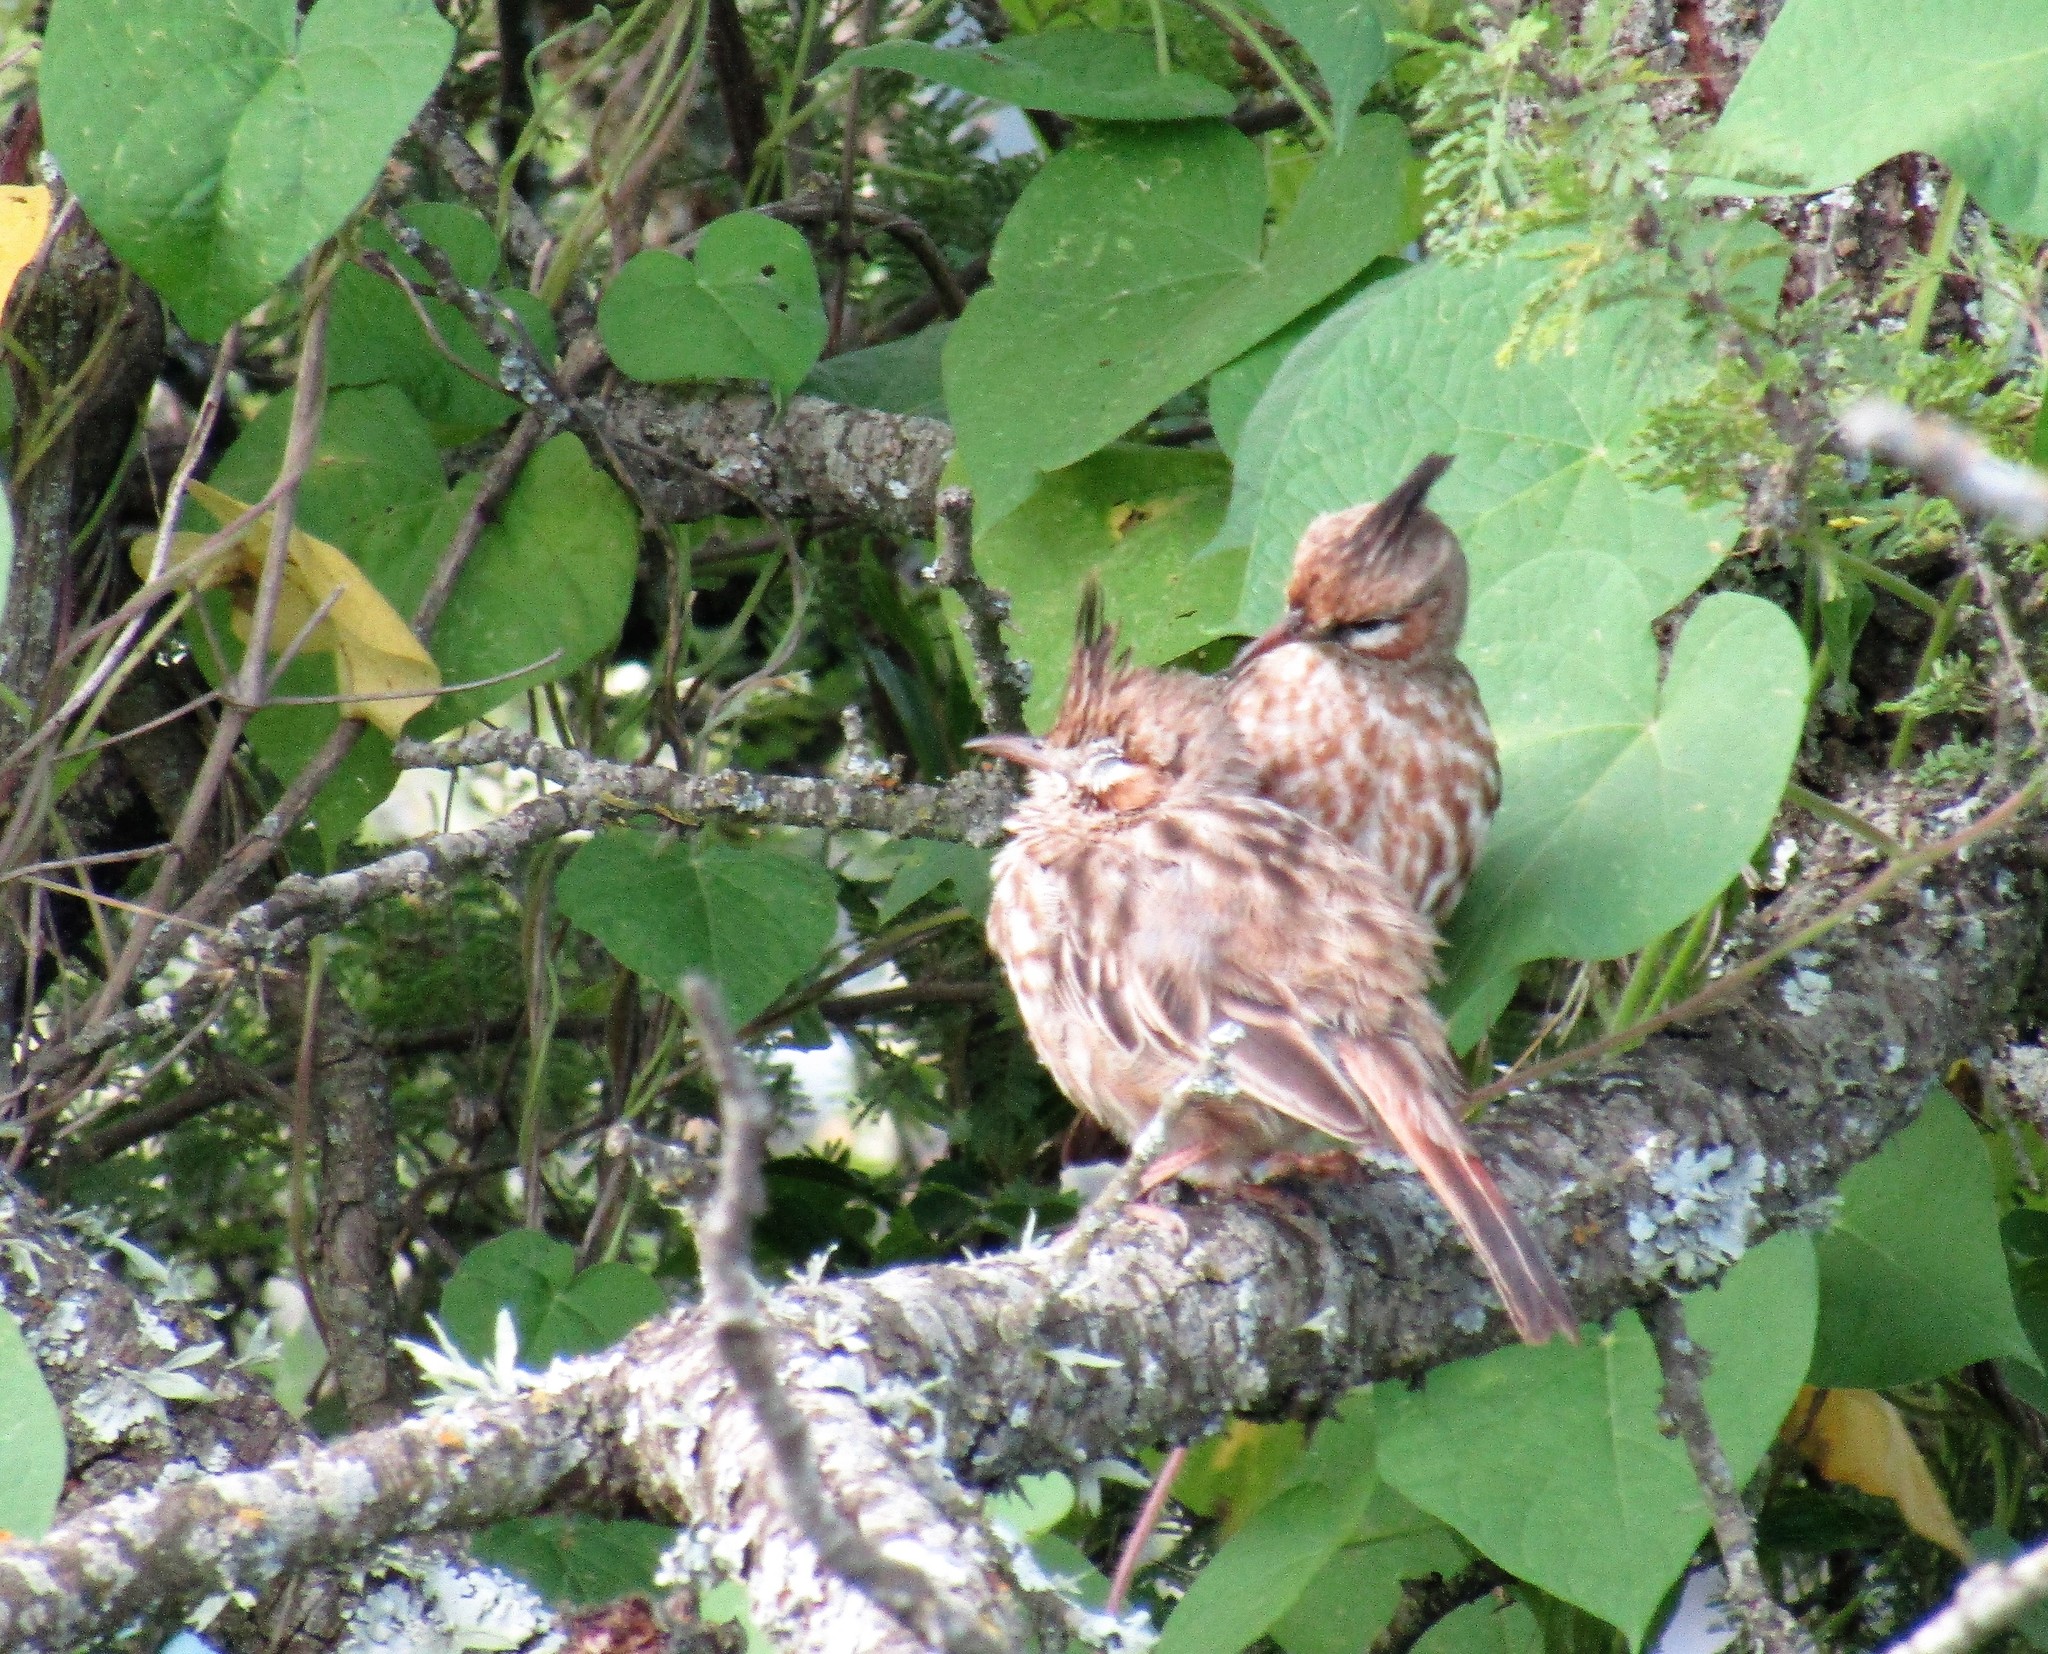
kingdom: Animalia
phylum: Chordata
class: Aves
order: Passeriformes
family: Furnariidae
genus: Coryphistera
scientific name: Coryphistera alaudina
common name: Lark-like brushrunner
